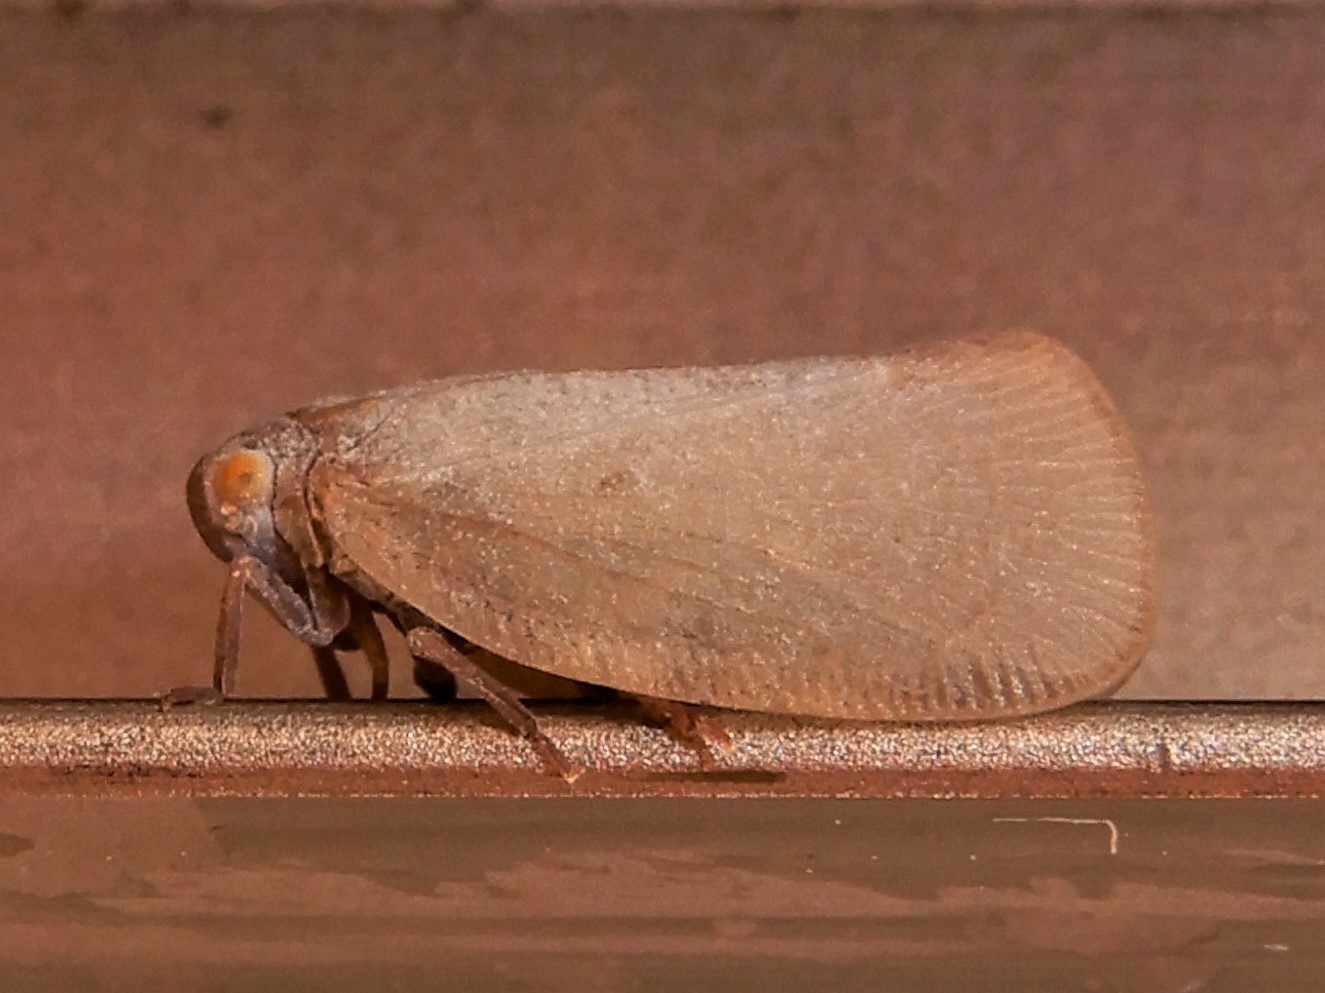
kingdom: Animalia
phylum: Arthropoda
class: Insecta
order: Hemiptera
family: Flatidae
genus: Anzora
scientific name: Anzora unicolor
